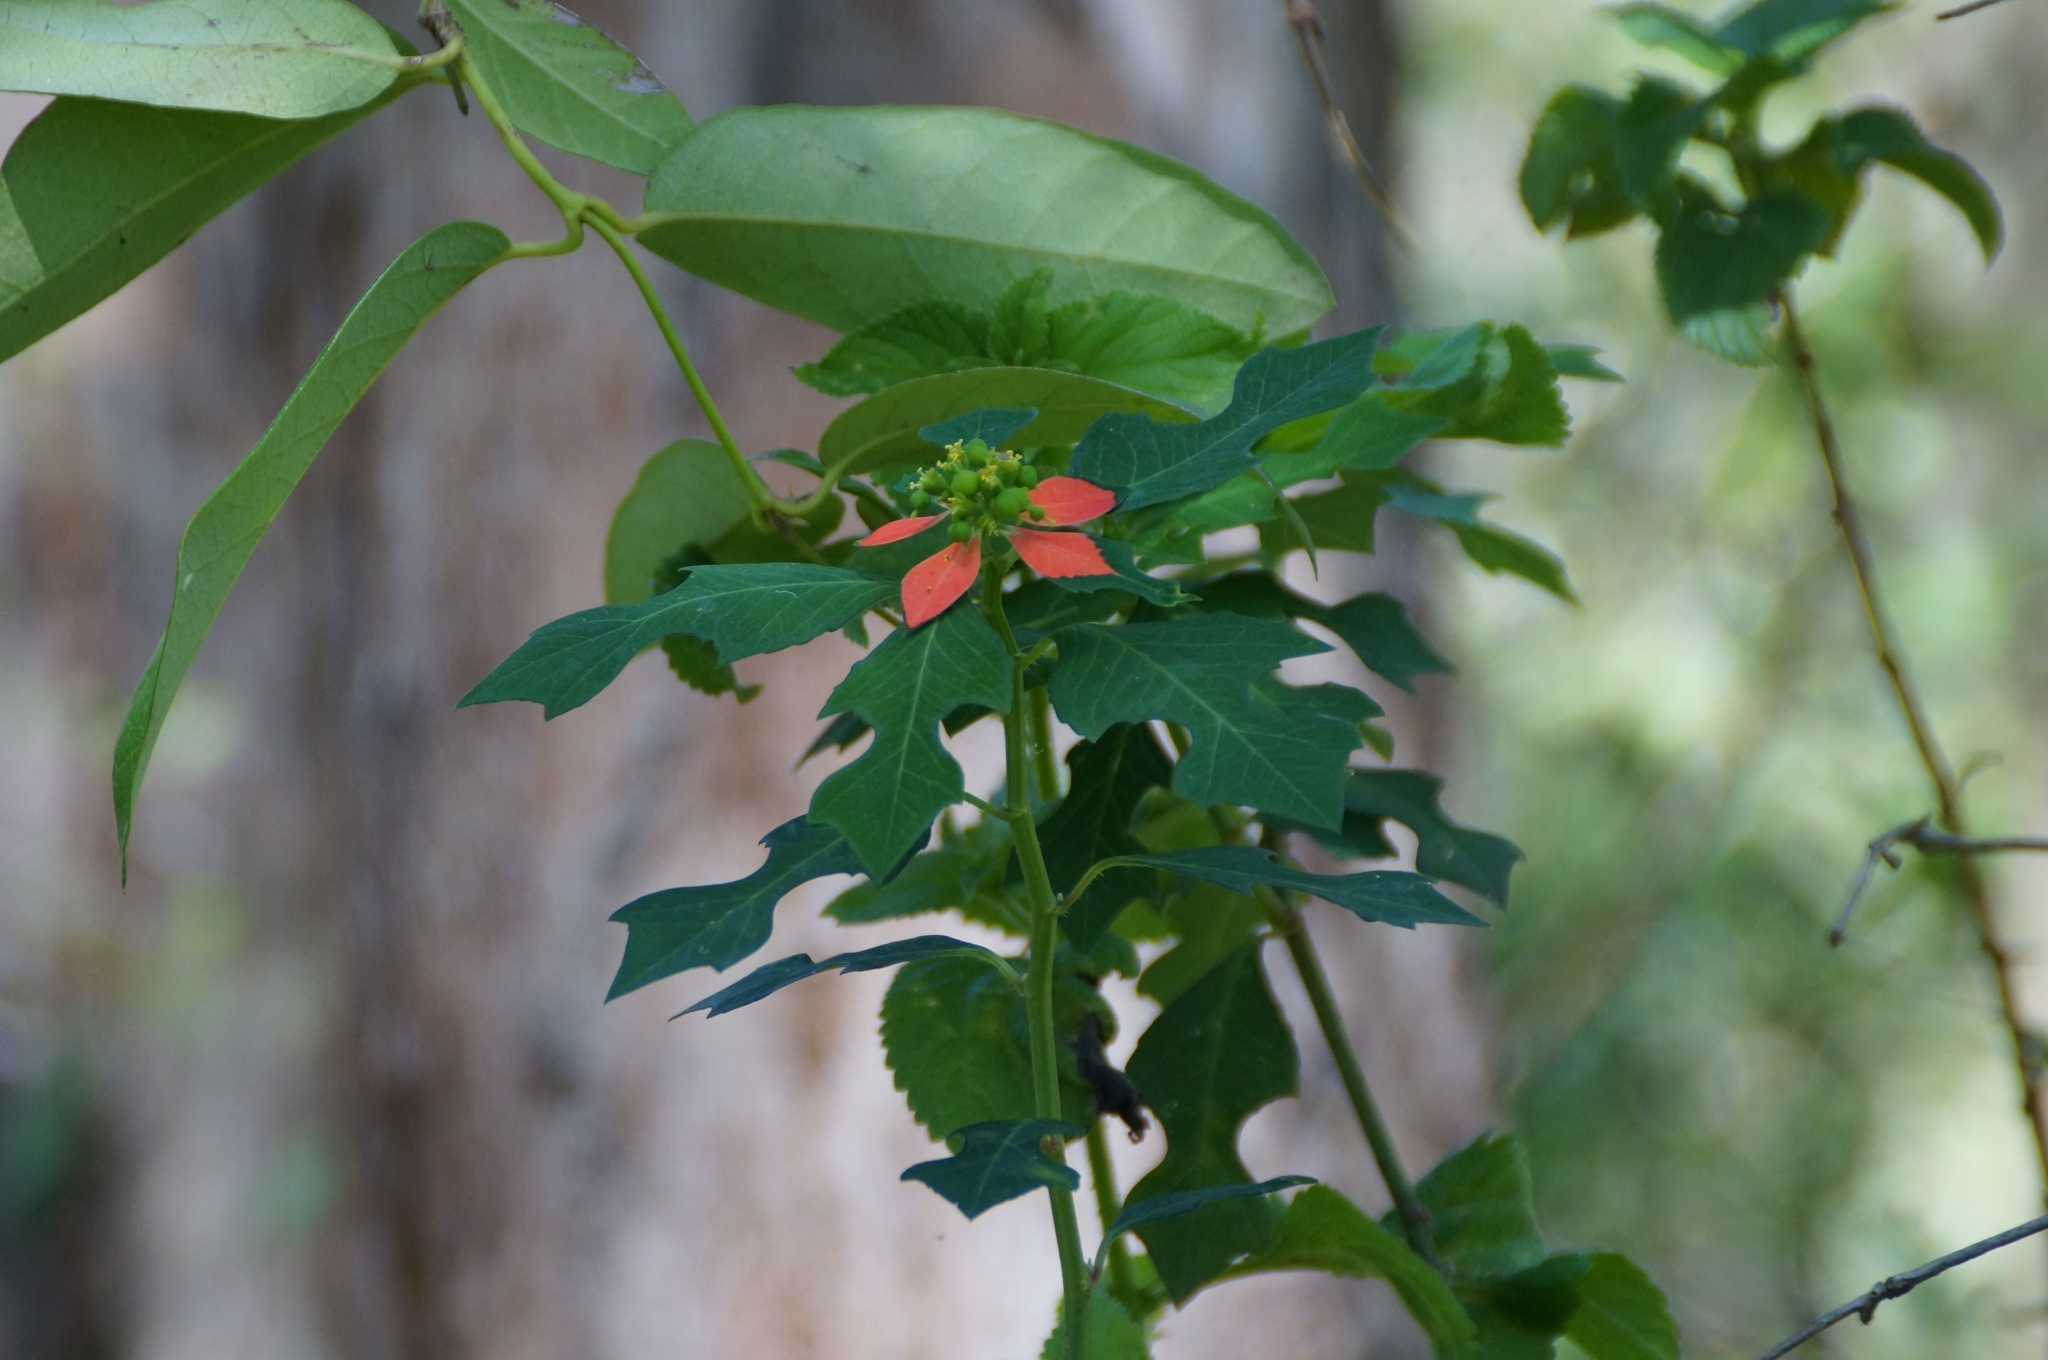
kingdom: Plantae
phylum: Tracheophyta
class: Magnoliopsida
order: Malpighiales
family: Euphorbiaceae
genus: Euphorbia
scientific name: Euphorbia heterophylla
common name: Mexican fireplant
